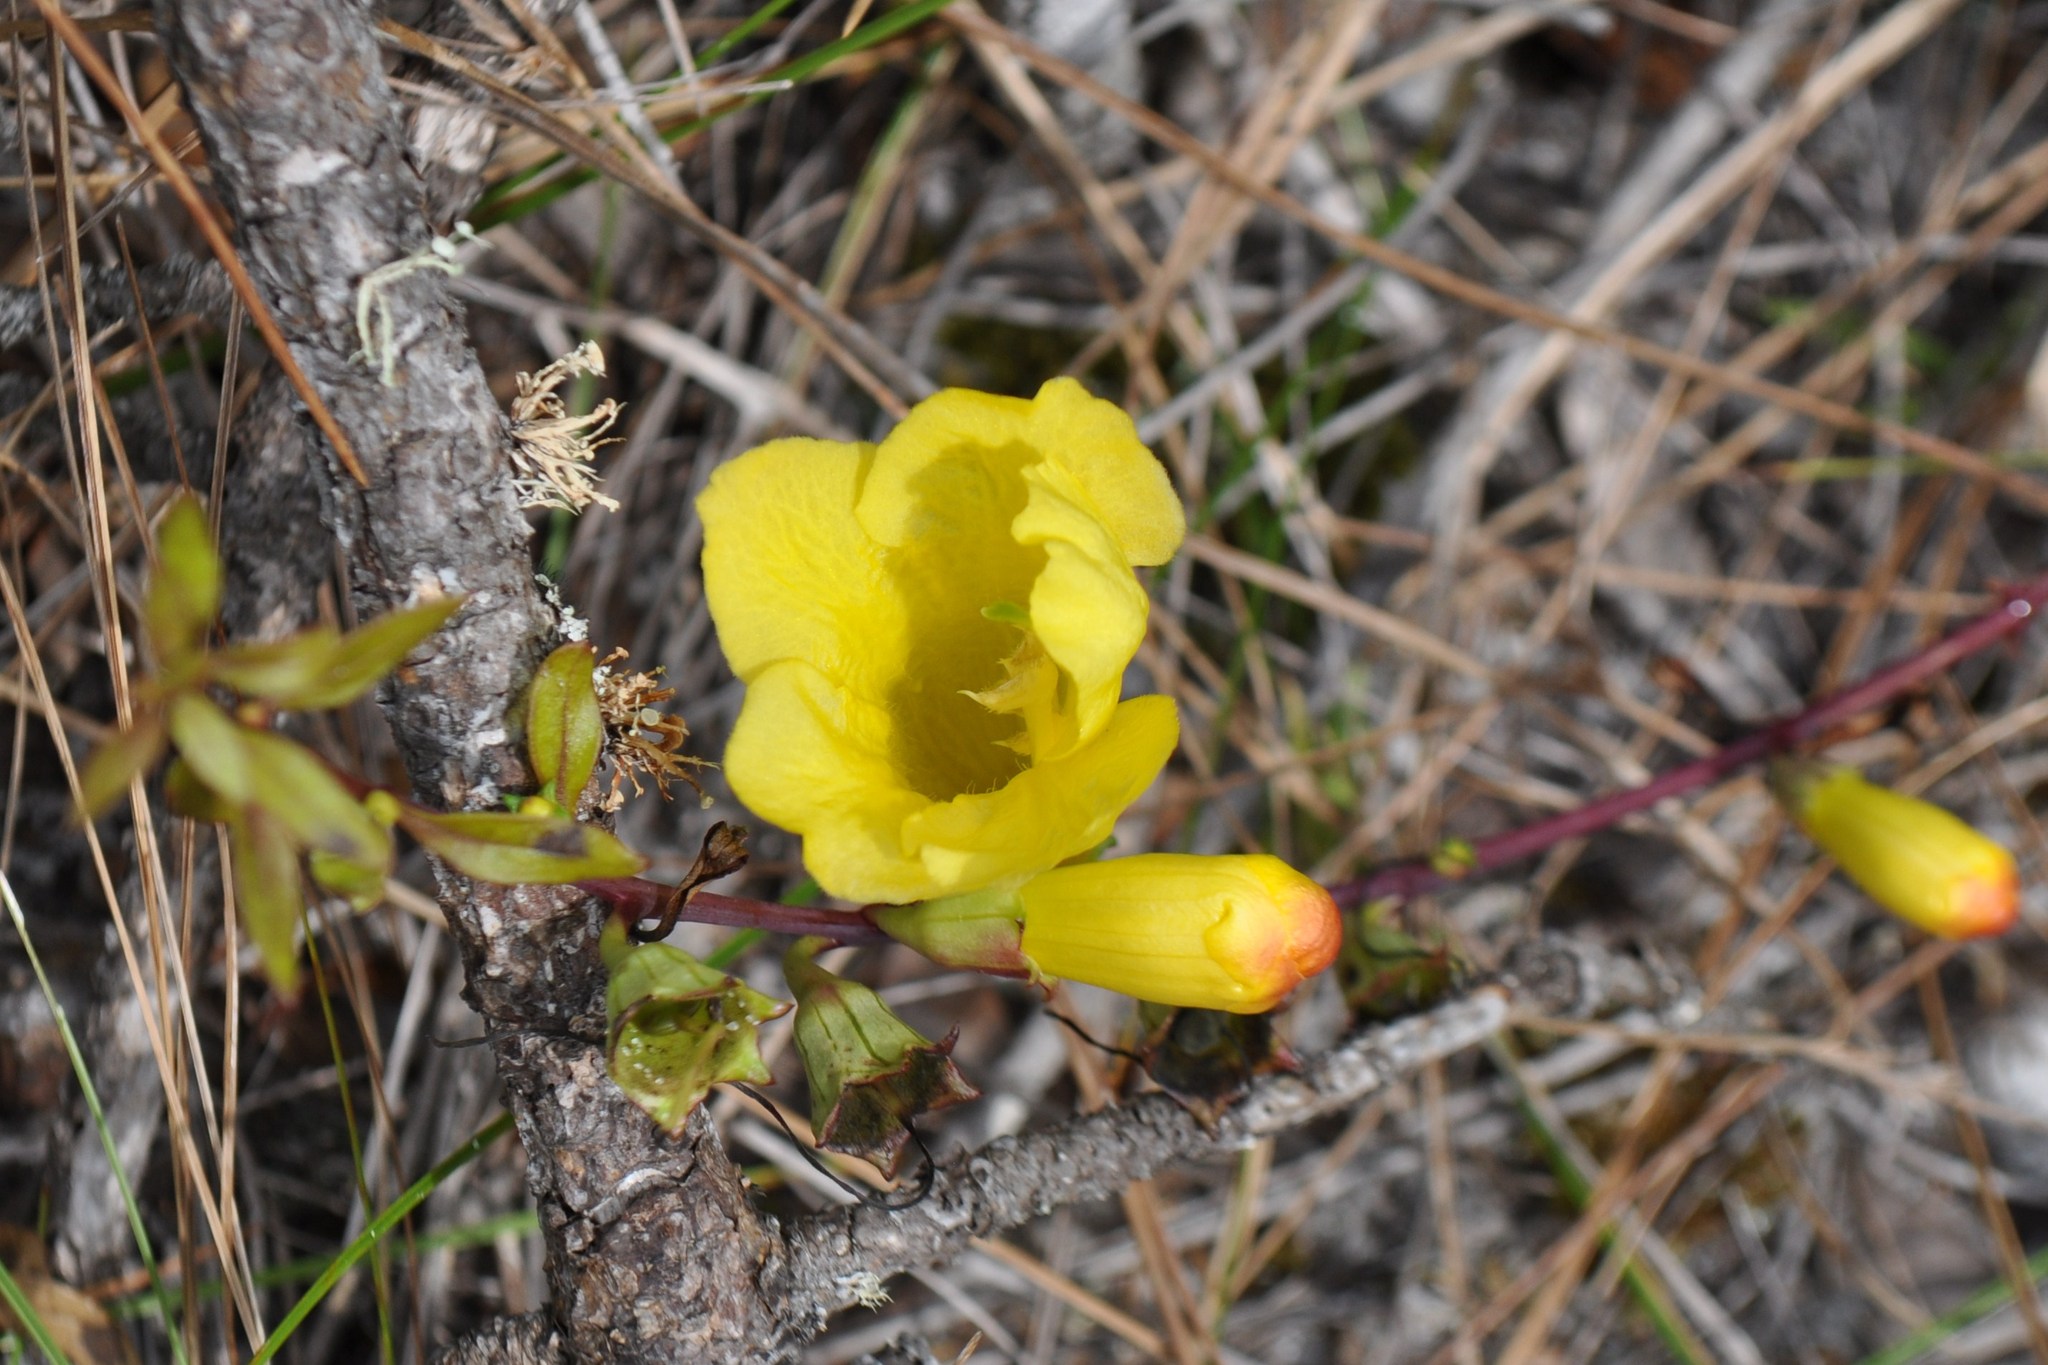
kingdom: Plantae
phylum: Tracheophyta
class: Magnoliopsida
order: Lamiales
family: Orobanchaceae
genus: Aureolaria
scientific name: Aureolaria flava
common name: Smooth false foxglove
